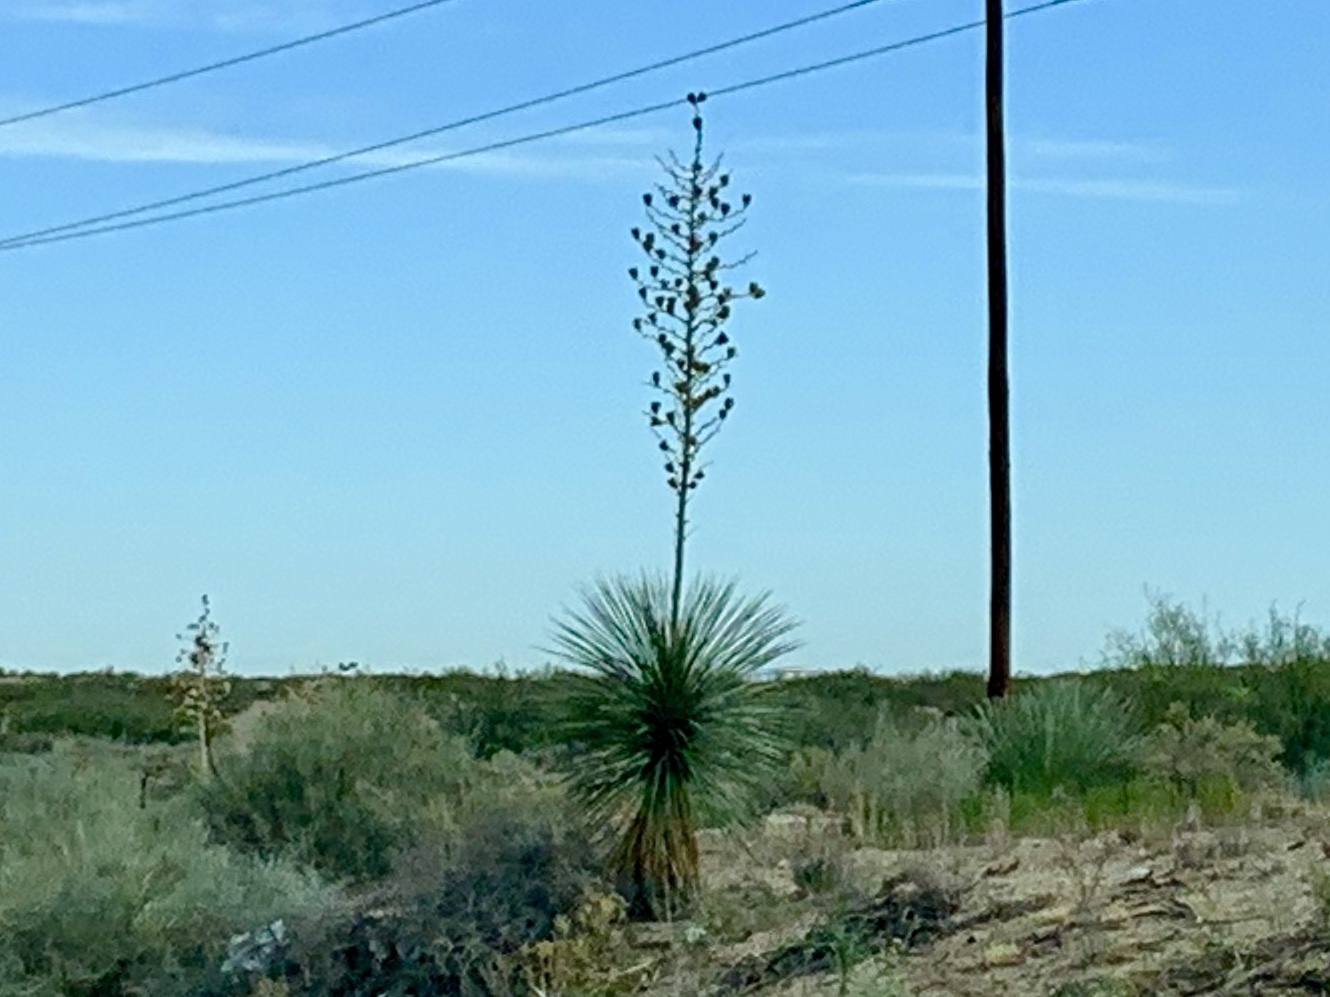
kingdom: Plantae
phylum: Tracheophyta
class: Liliopsida
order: Asparagales
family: Asparagaceae
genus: Yucca
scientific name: Yucca elata
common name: Palmella
